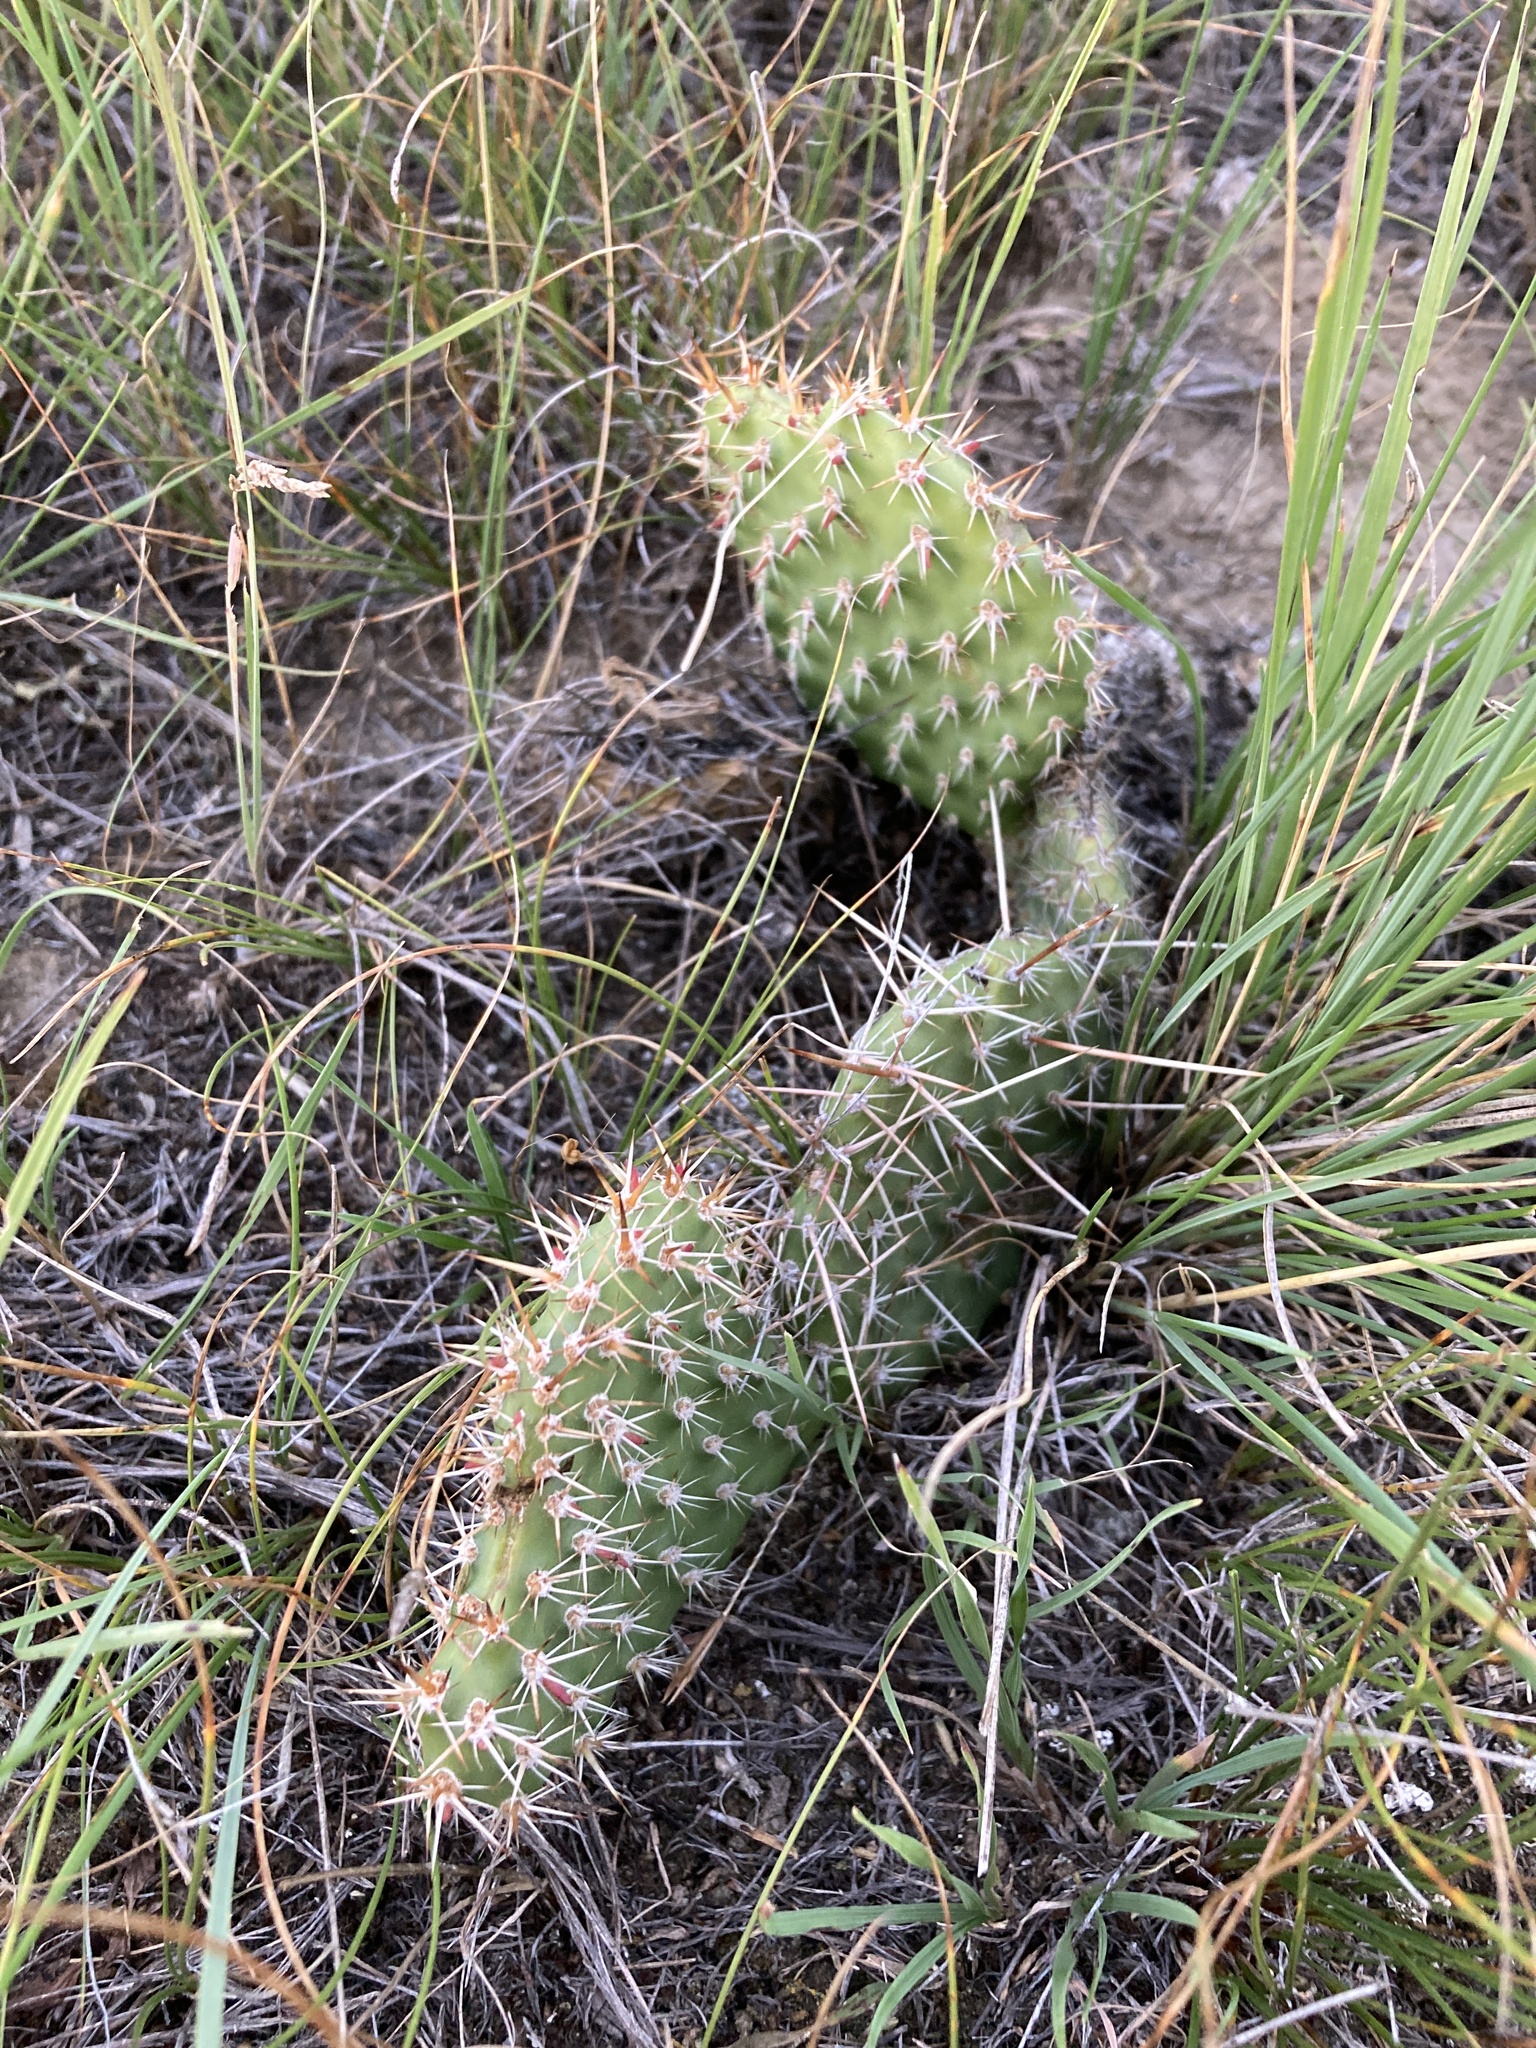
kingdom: Plantae
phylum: Tracheophyta
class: Magnoliopsida
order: Caryophyllales
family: Cactaceae
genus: Opuntia
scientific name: Opuntia polyacantha
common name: Plains prickly-pear
